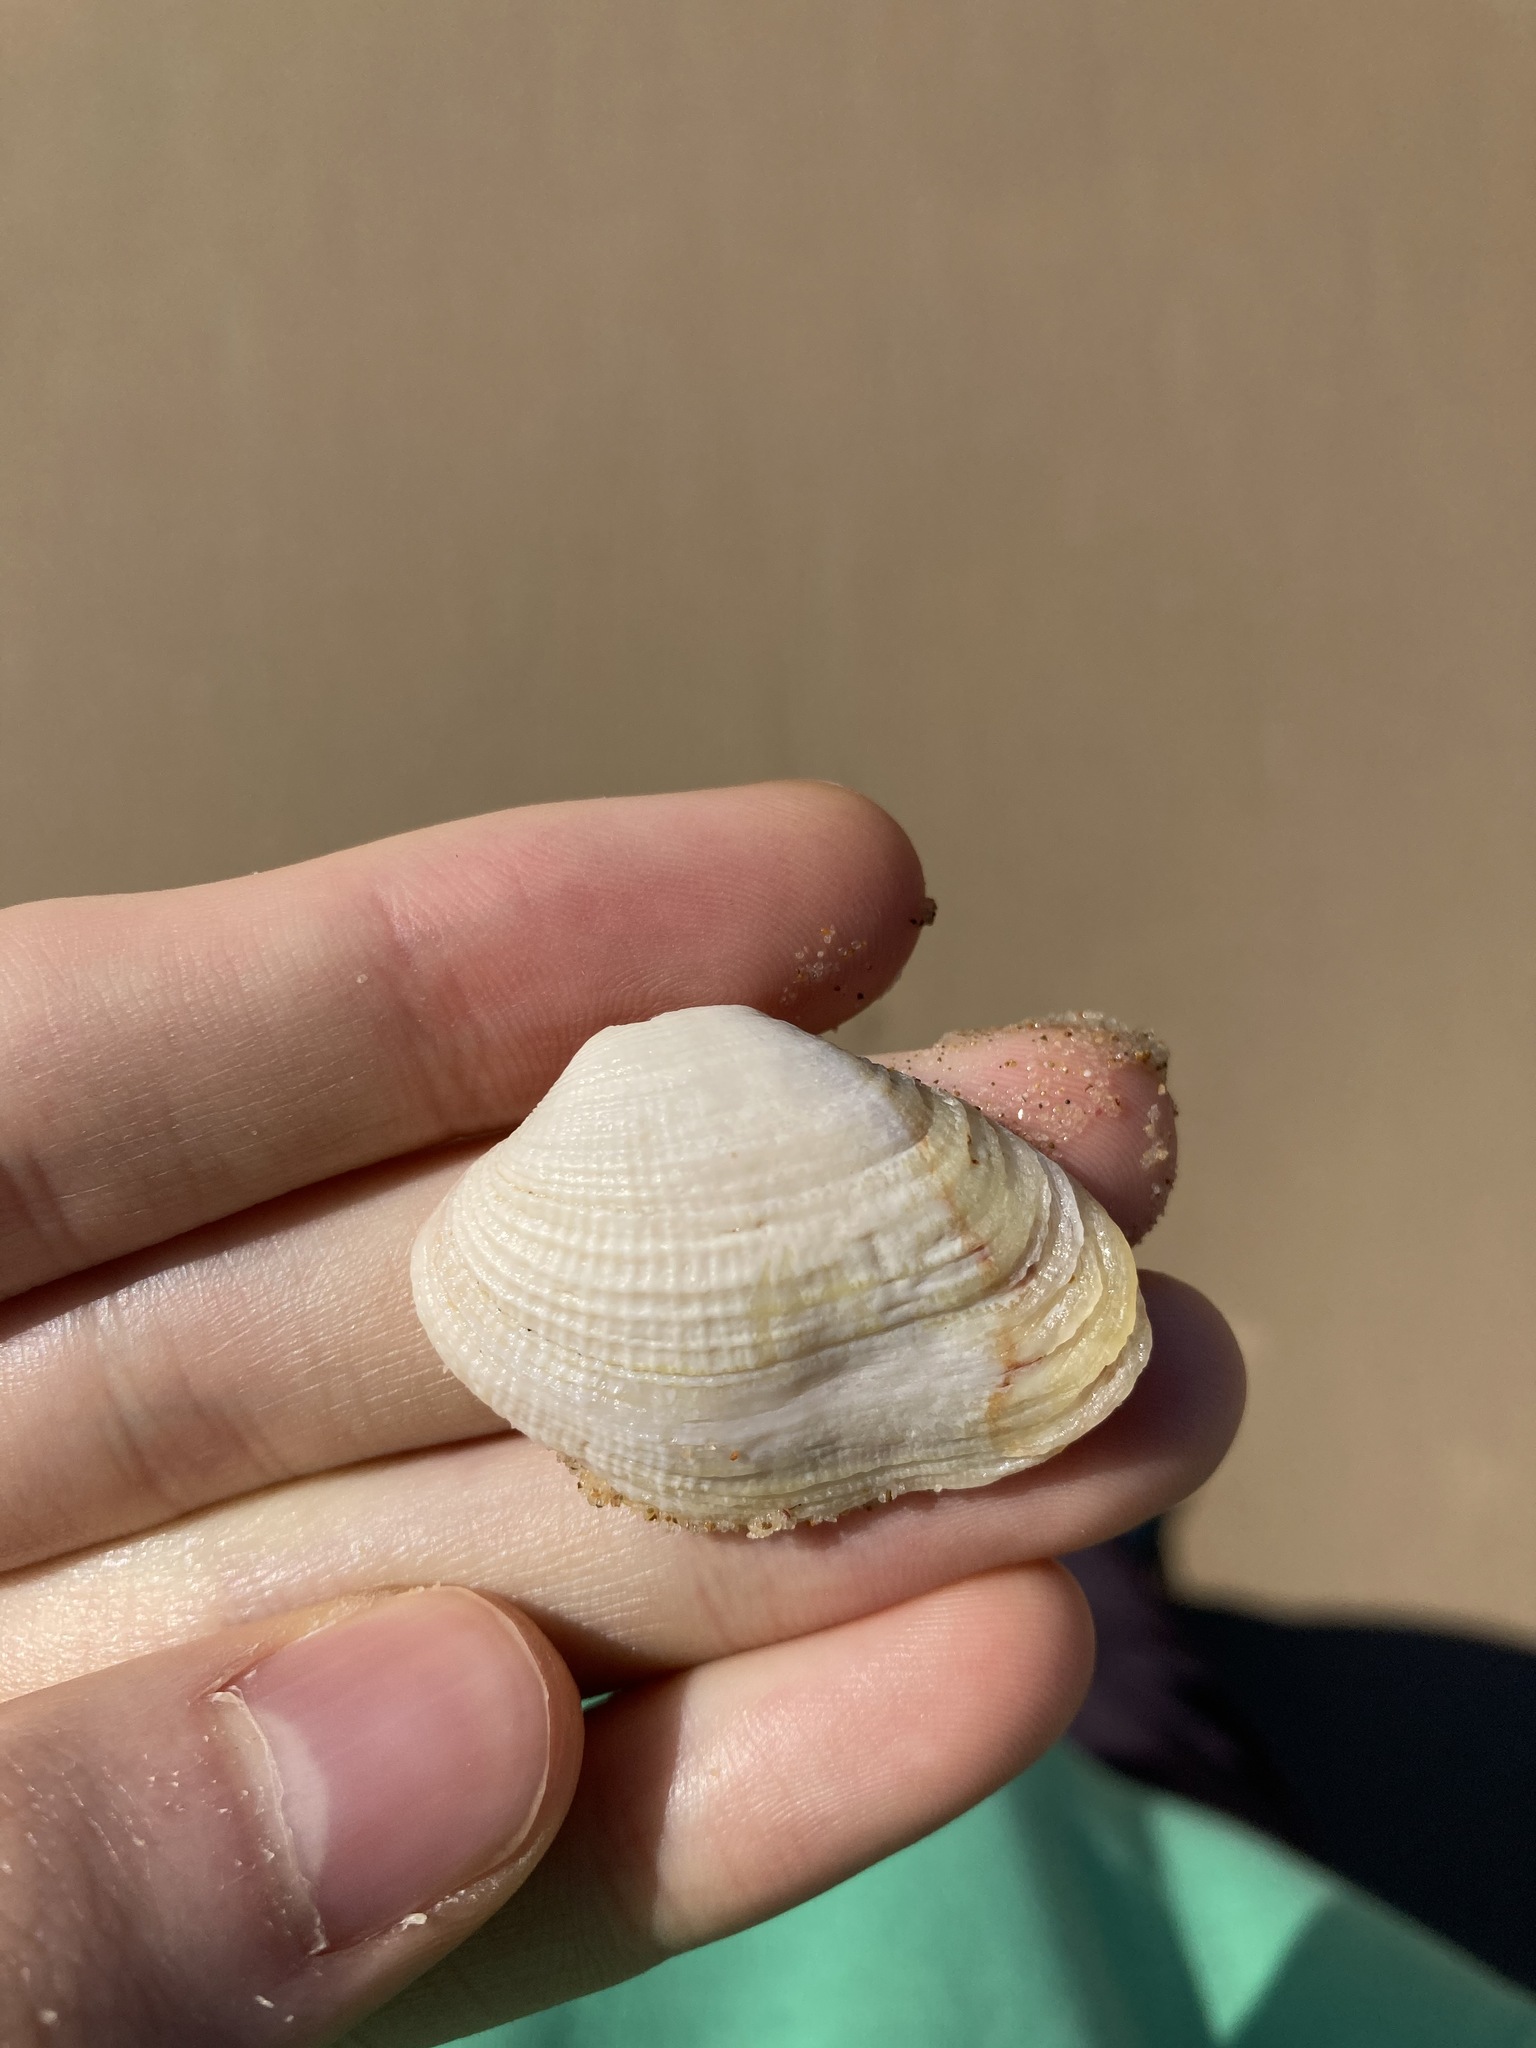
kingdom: Animalia
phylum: Mollusca
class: Bivalvia
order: Venerida
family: Veneridae
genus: Irus
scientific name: Irus crenatus
